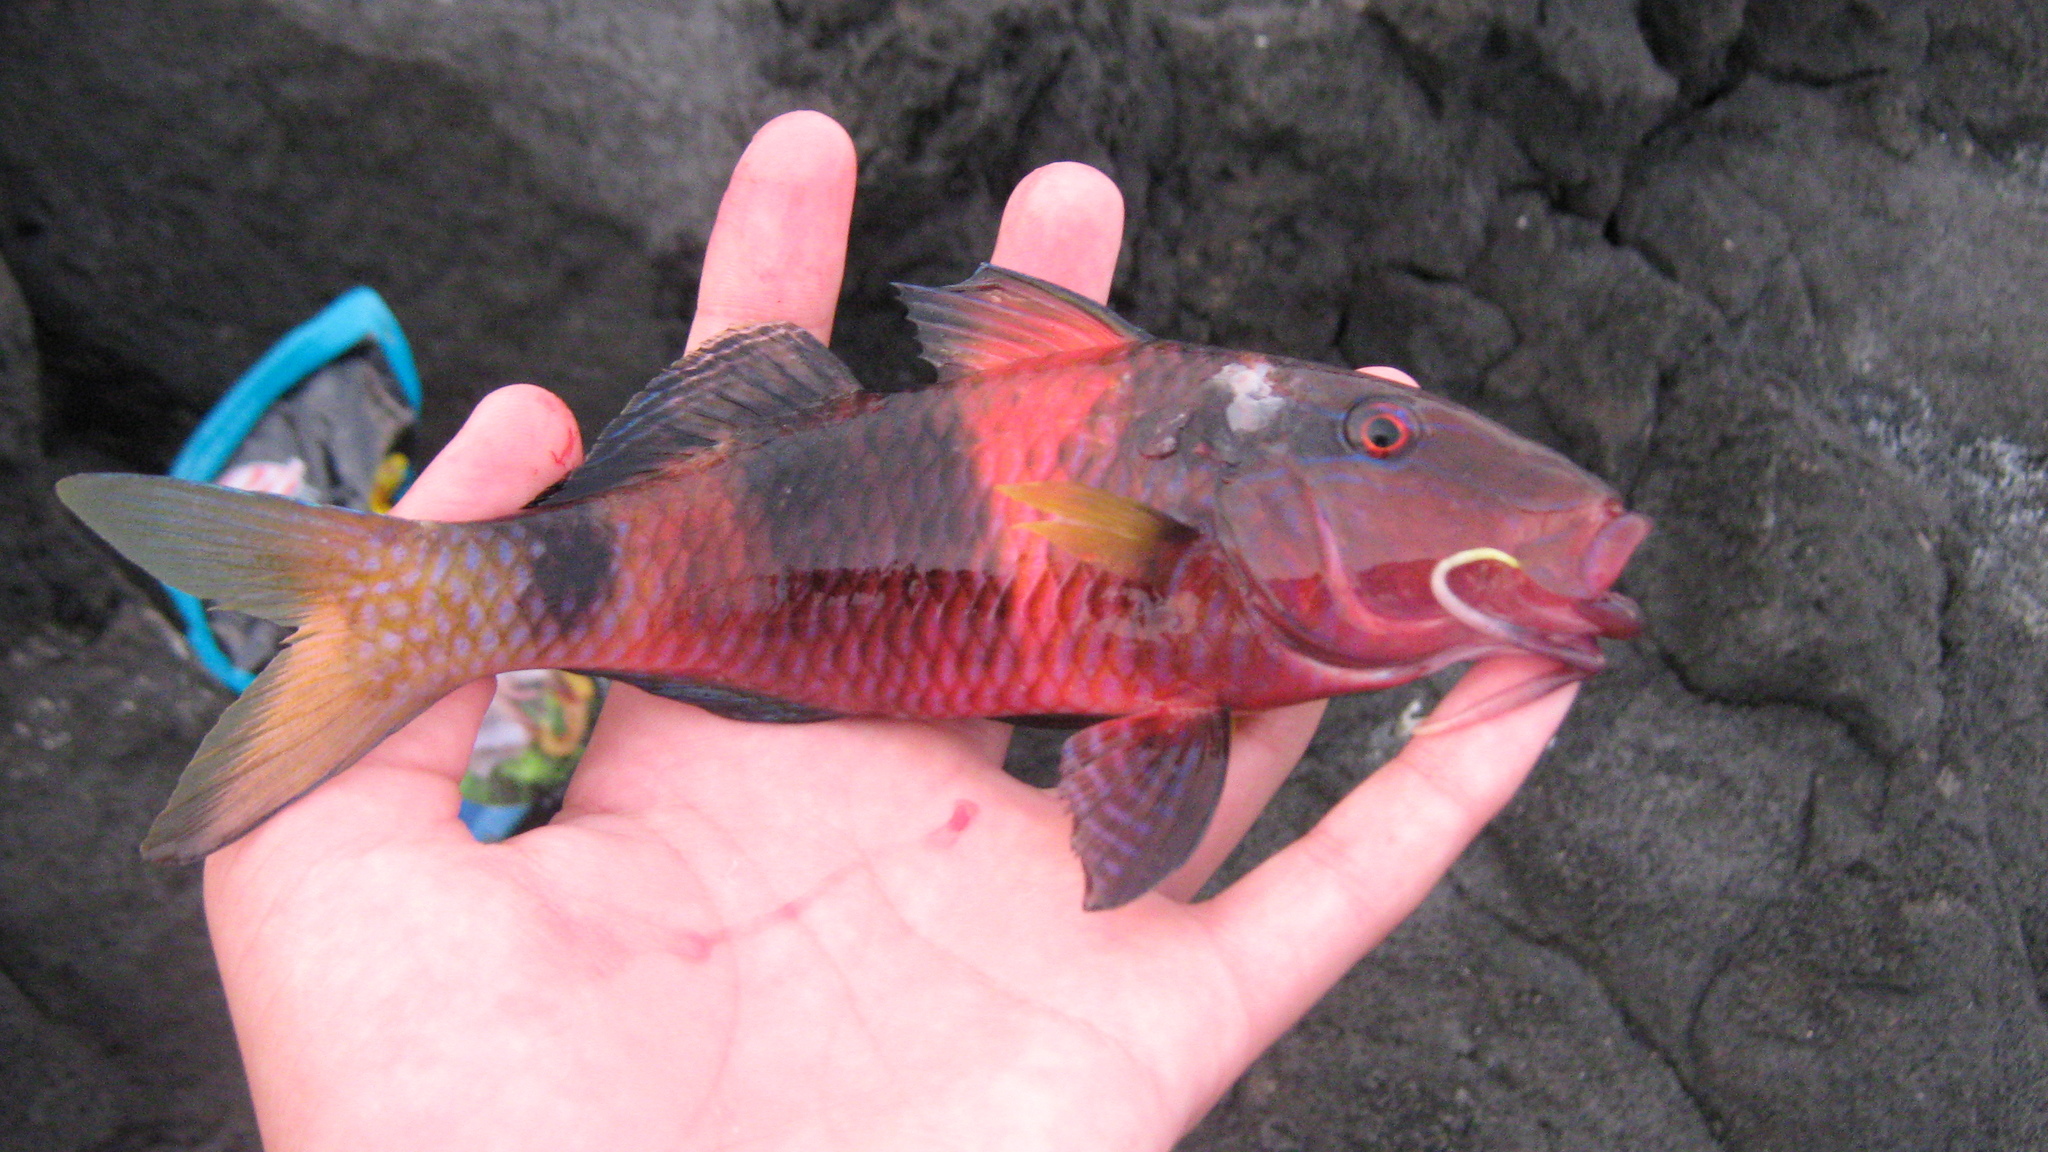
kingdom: Animalia
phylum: Chordata
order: Perciformes
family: Mullidae
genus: Parupeneus
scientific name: Parupeneus multifasciatus
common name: Manybar goatfish
